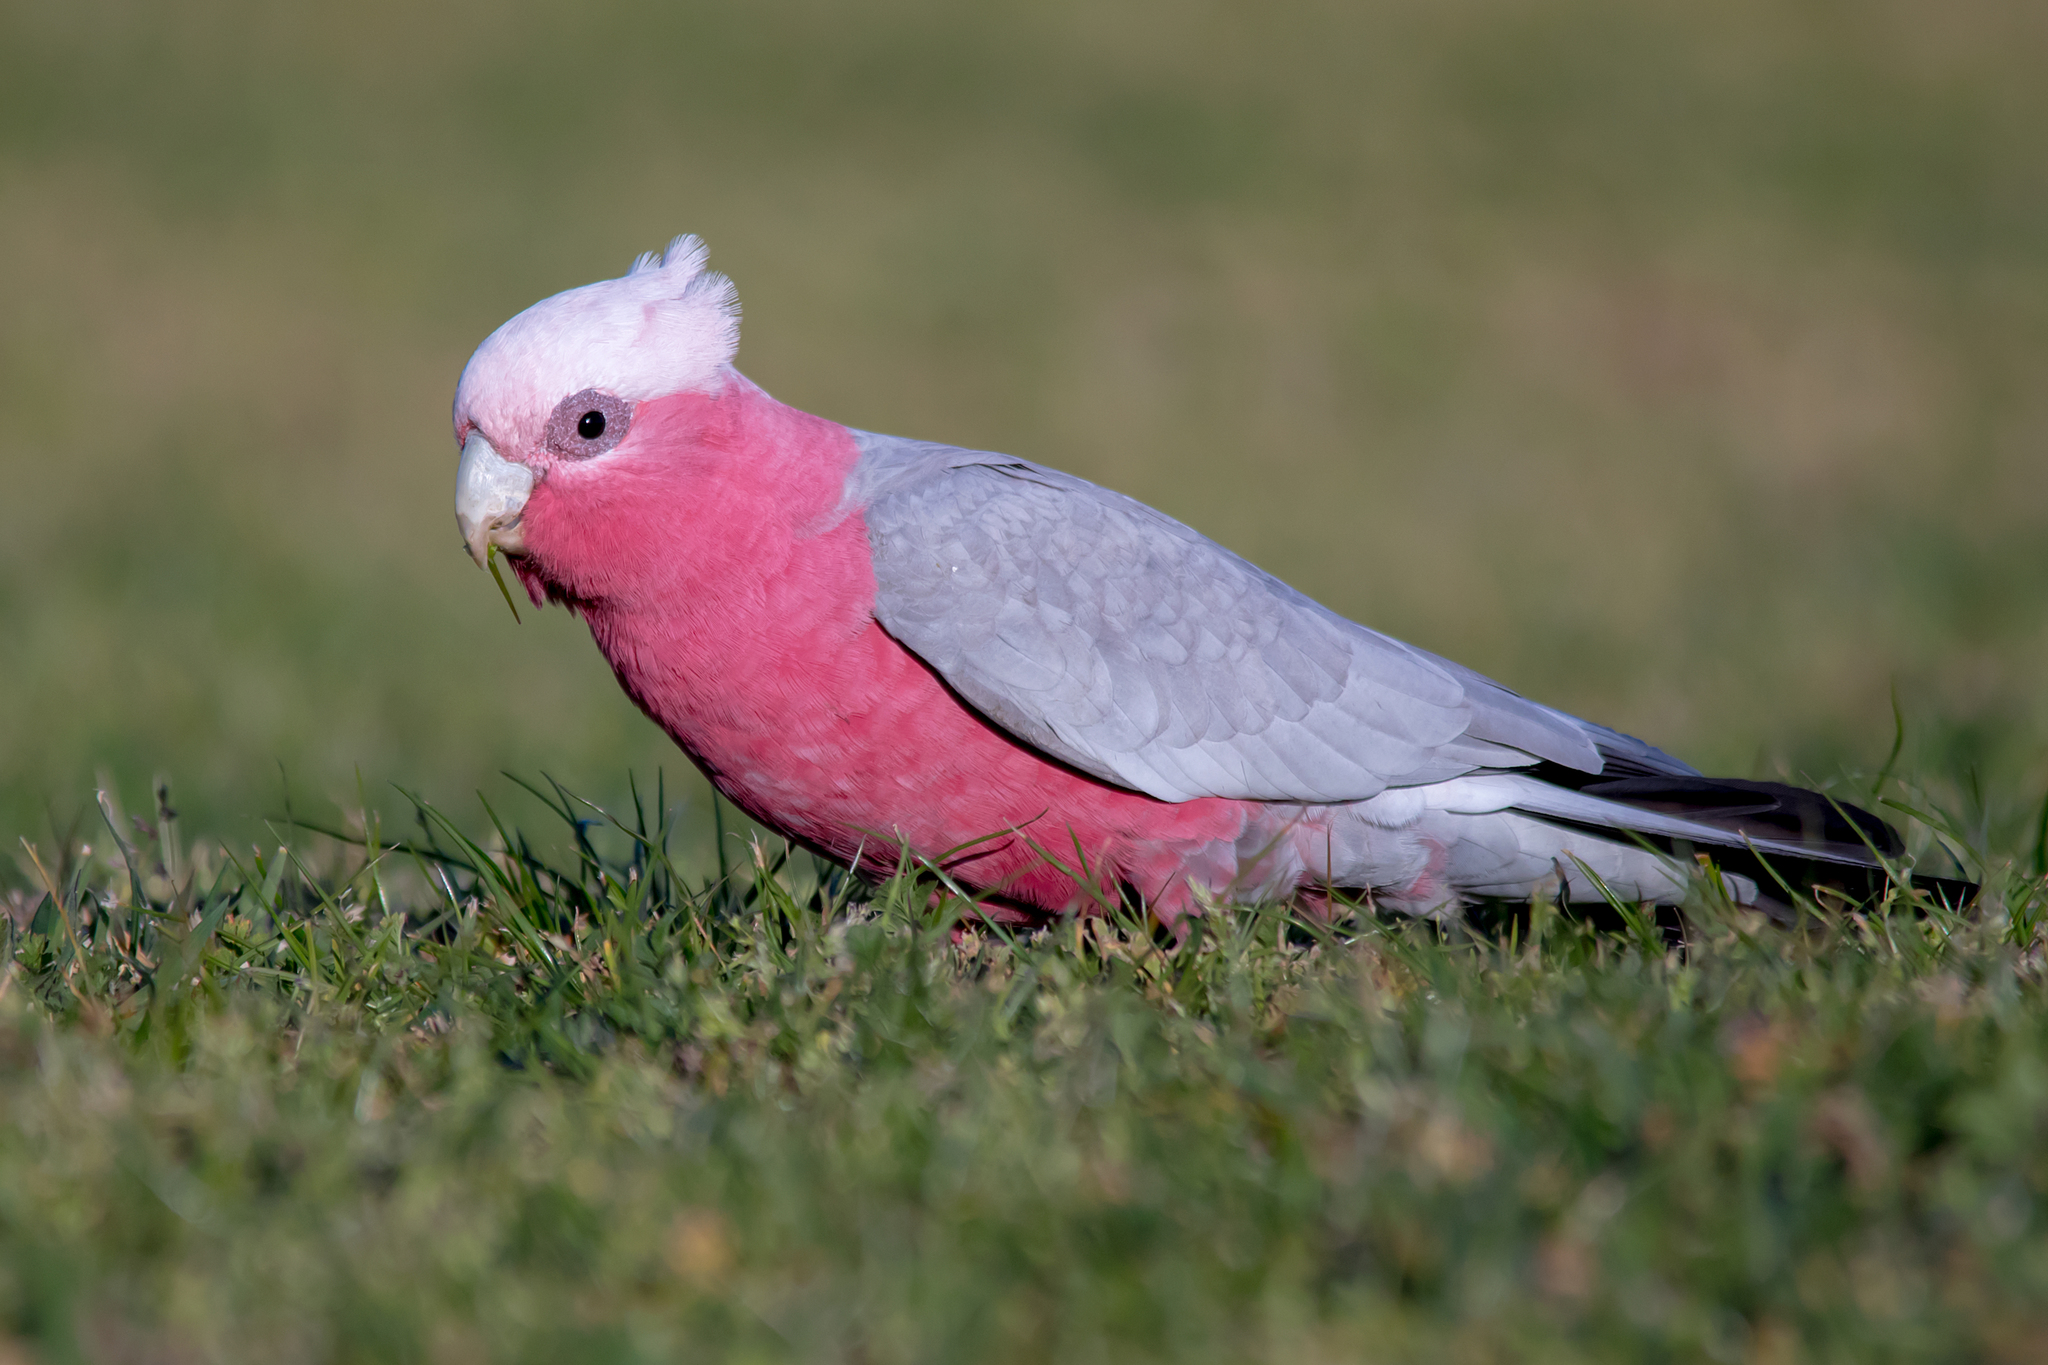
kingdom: Animalia
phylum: Chordata
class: Aves
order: Psittaciformes
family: Psittacidae
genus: Eolophus
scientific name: Eolophus roseicapilla
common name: Galah
